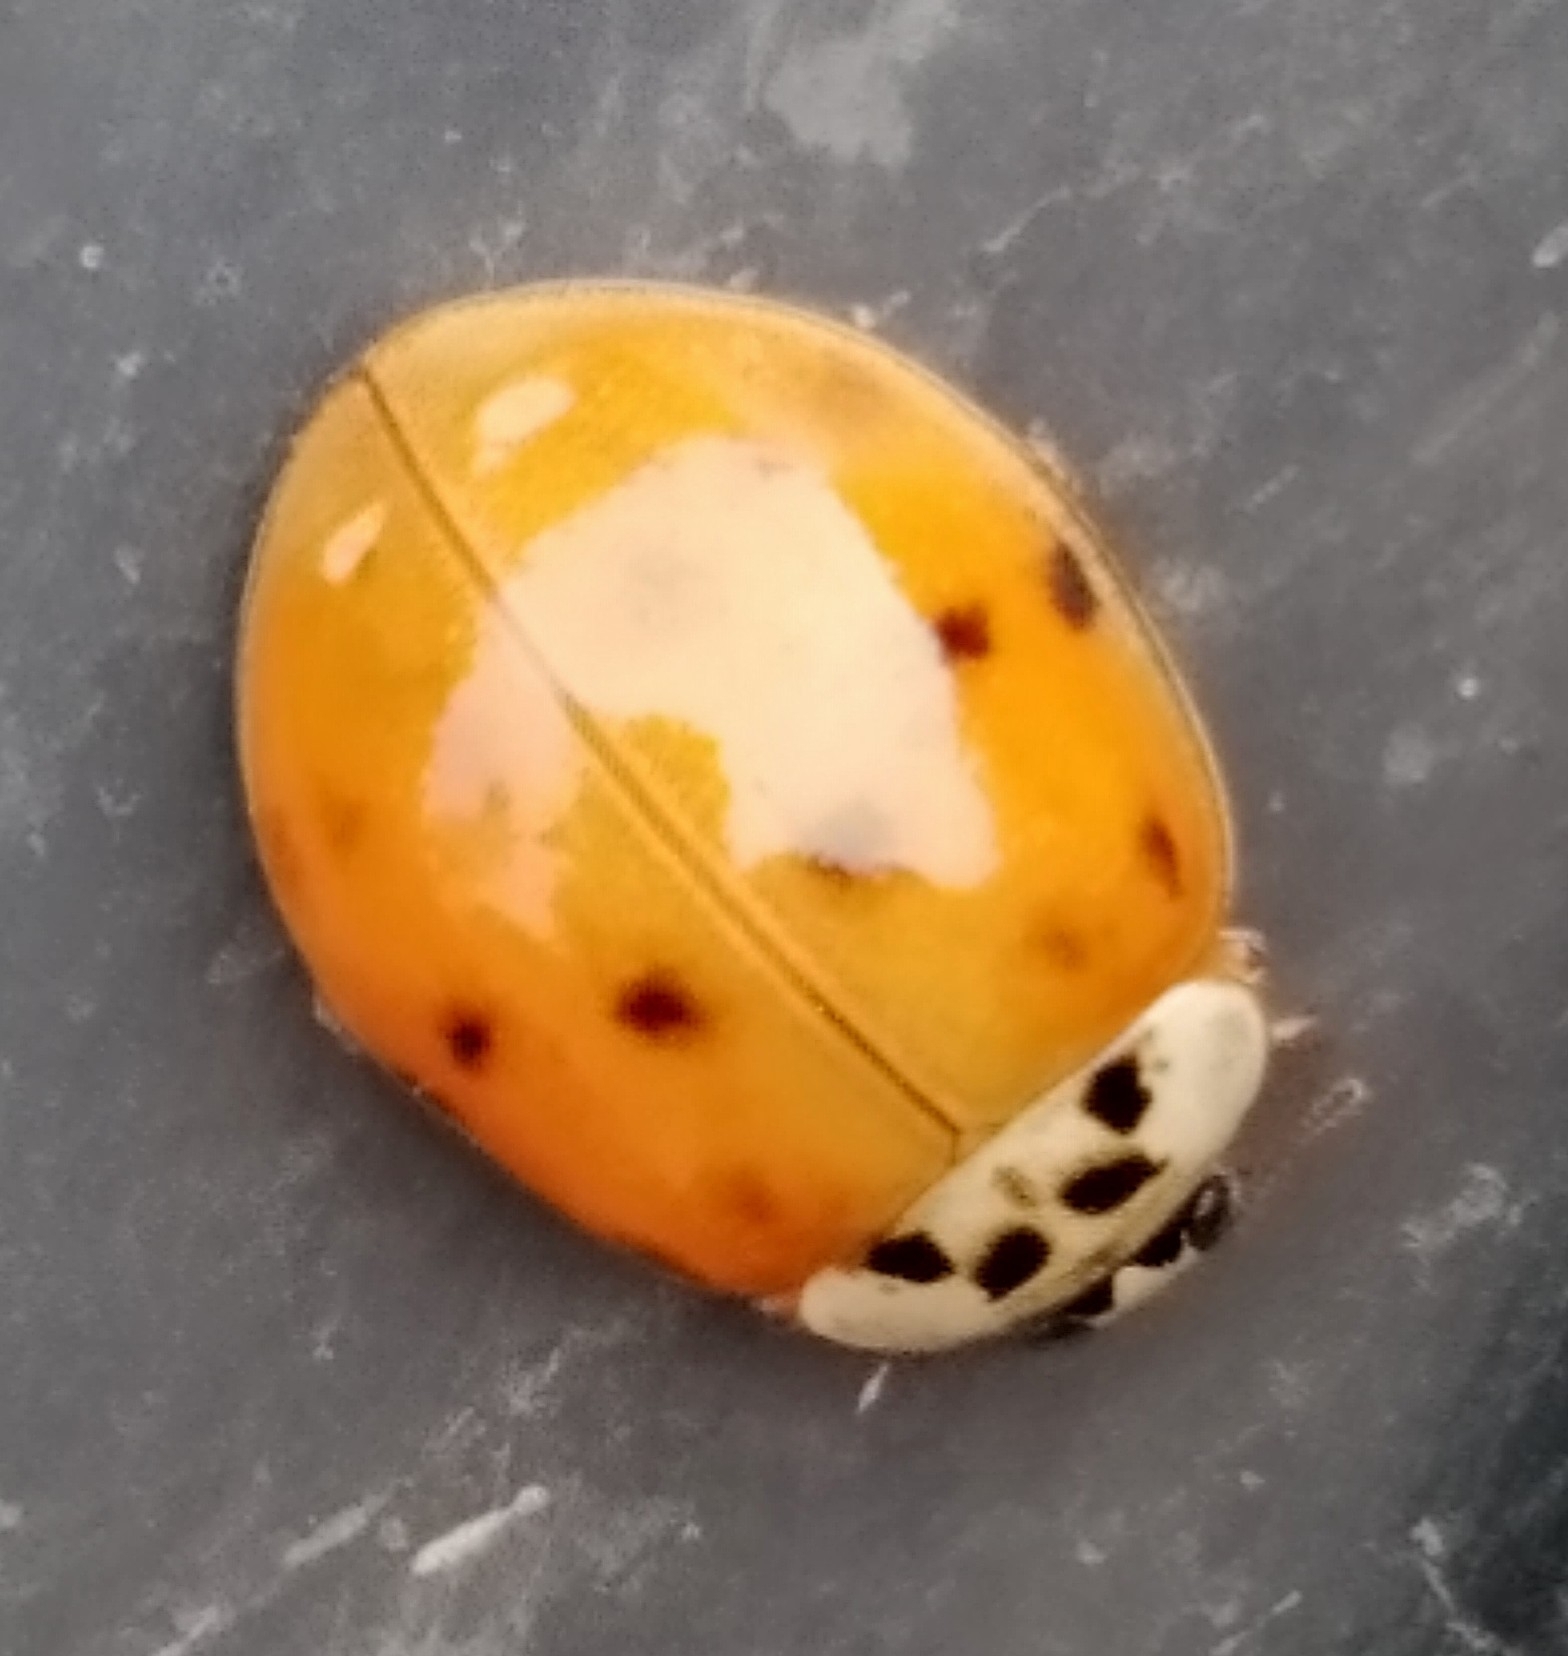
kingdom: Animalia
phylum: Arthropoda
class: Insecta
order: Coleoptera
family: Coccinellidae
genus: Harmonia
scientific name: Harmonia axyridis
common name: Harlequin ladybird
